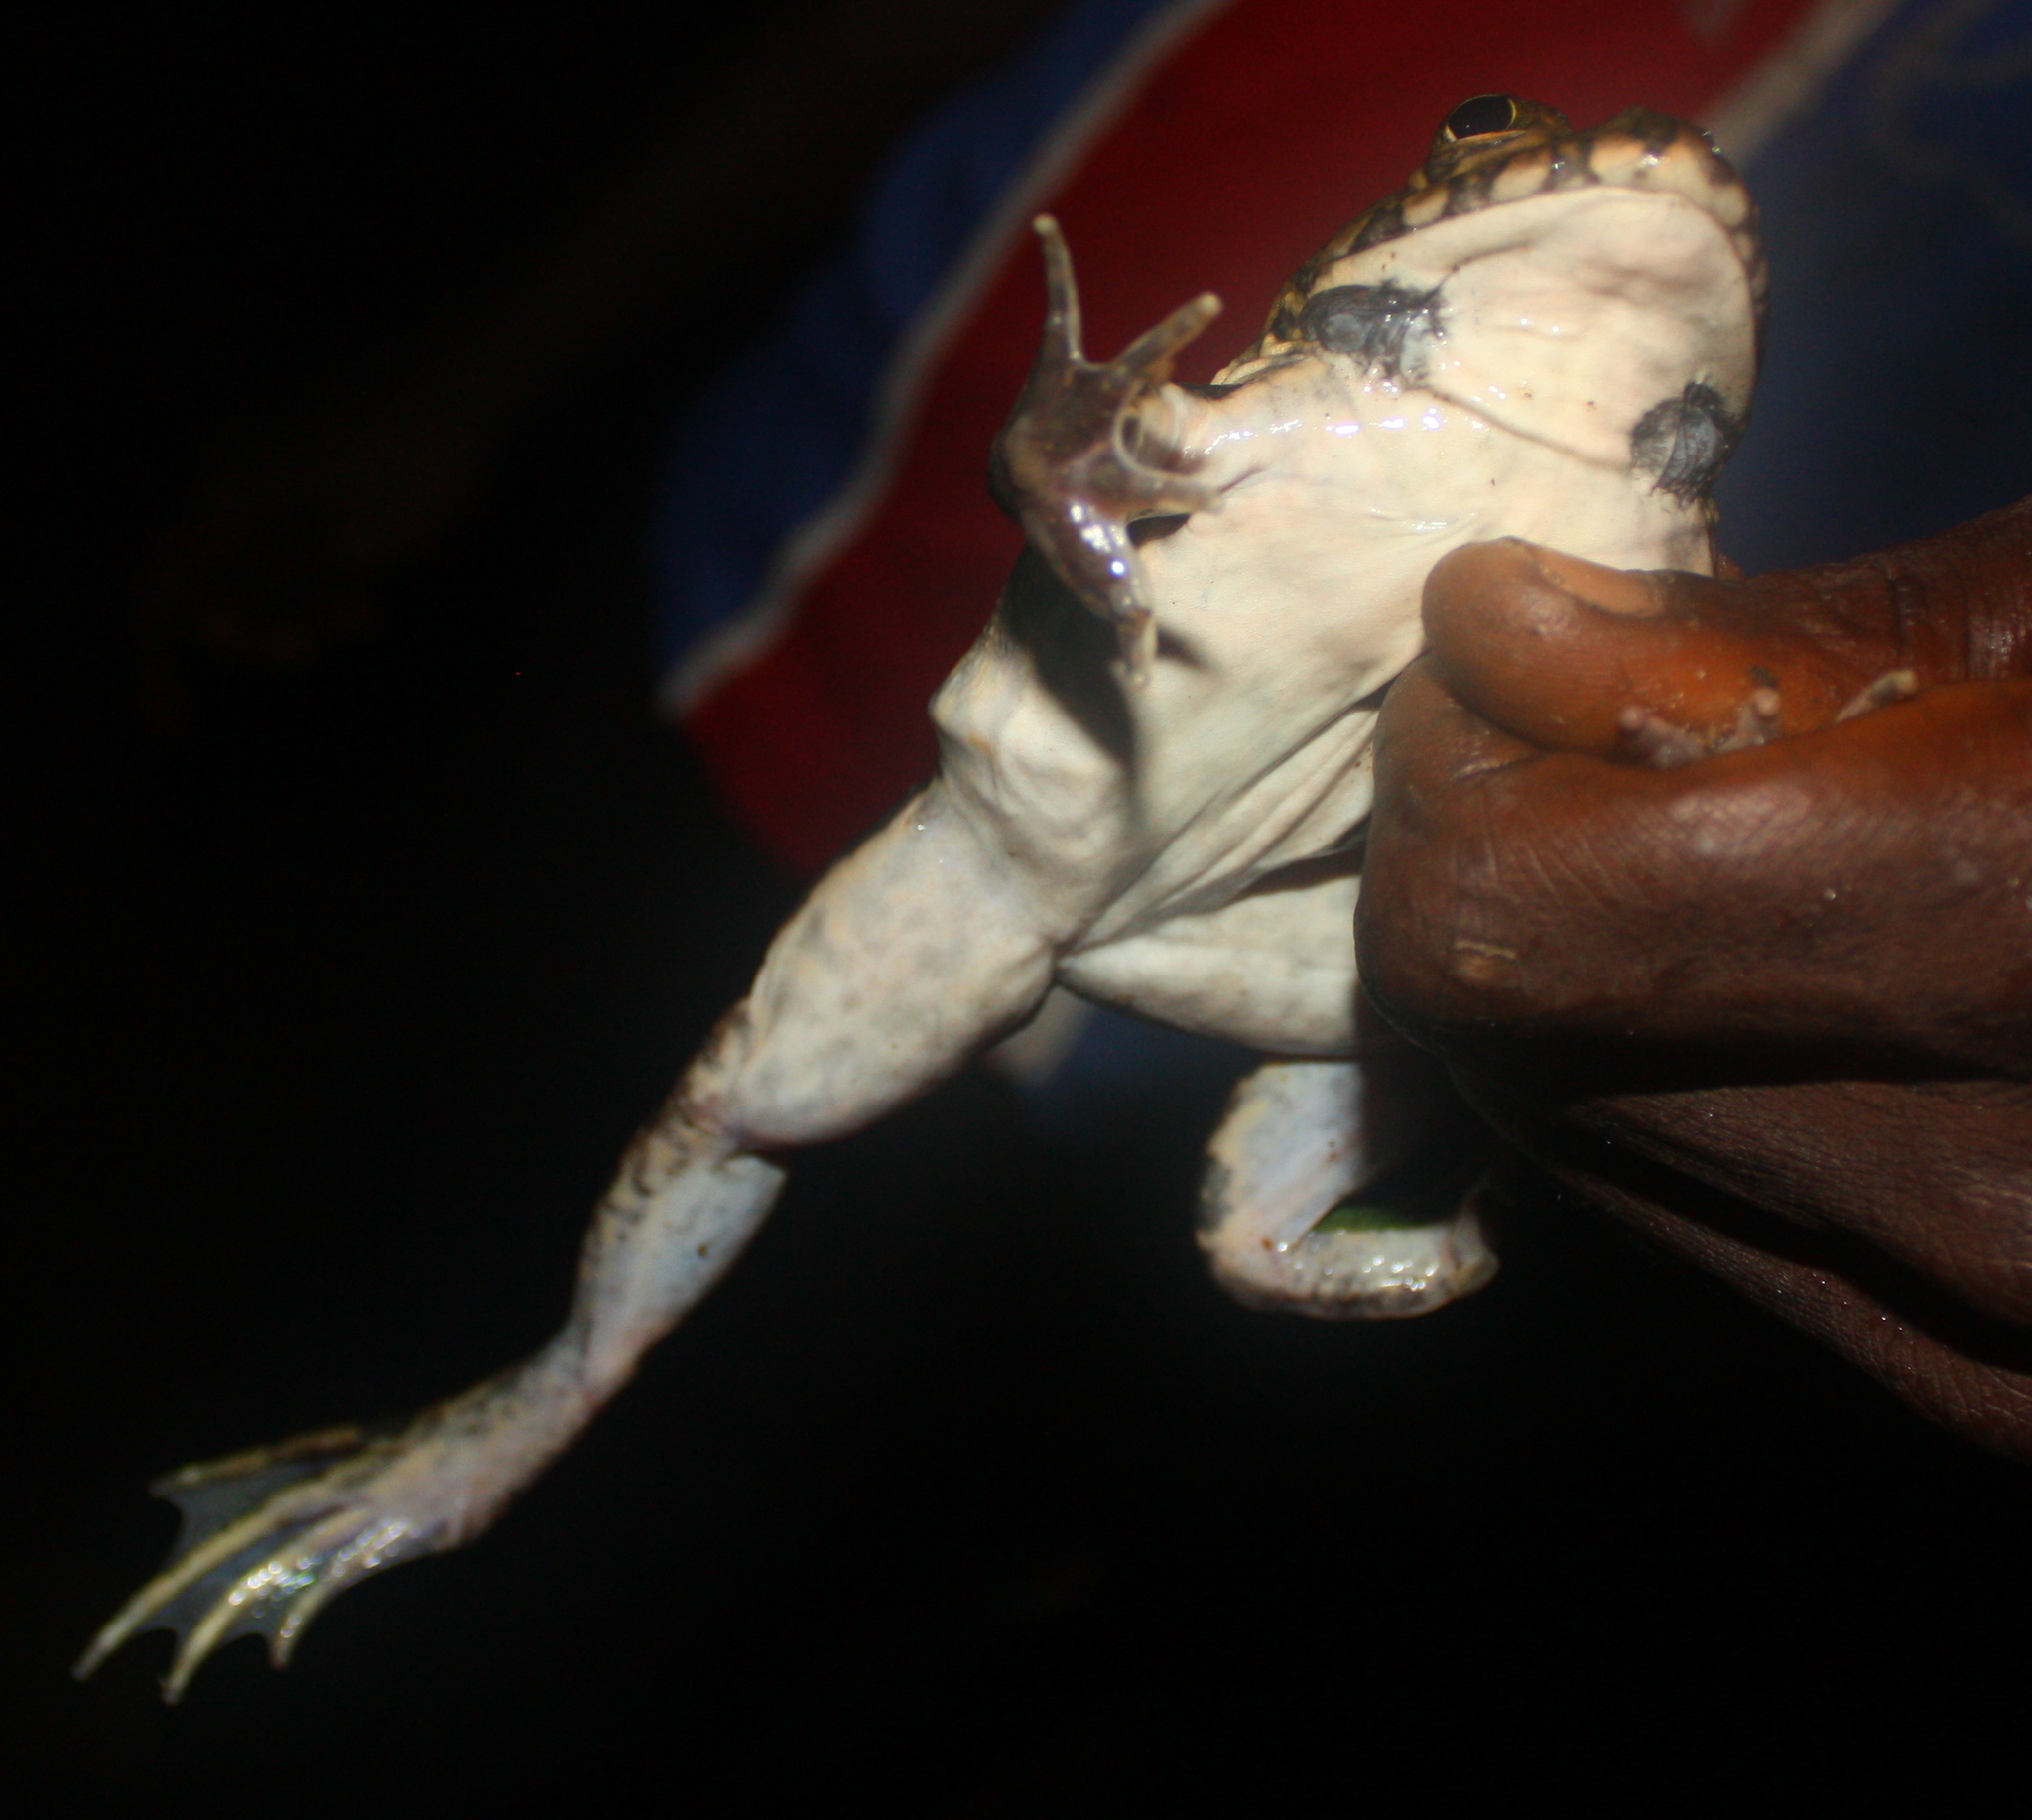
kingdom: Animalia
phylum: Chordata
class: Amphibia
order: Anura
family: Dicroglossidae
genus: Hoplobatrachus
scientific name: Hoplobatrachus occipitalis
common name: Eastern groove-crowned bullfrog
